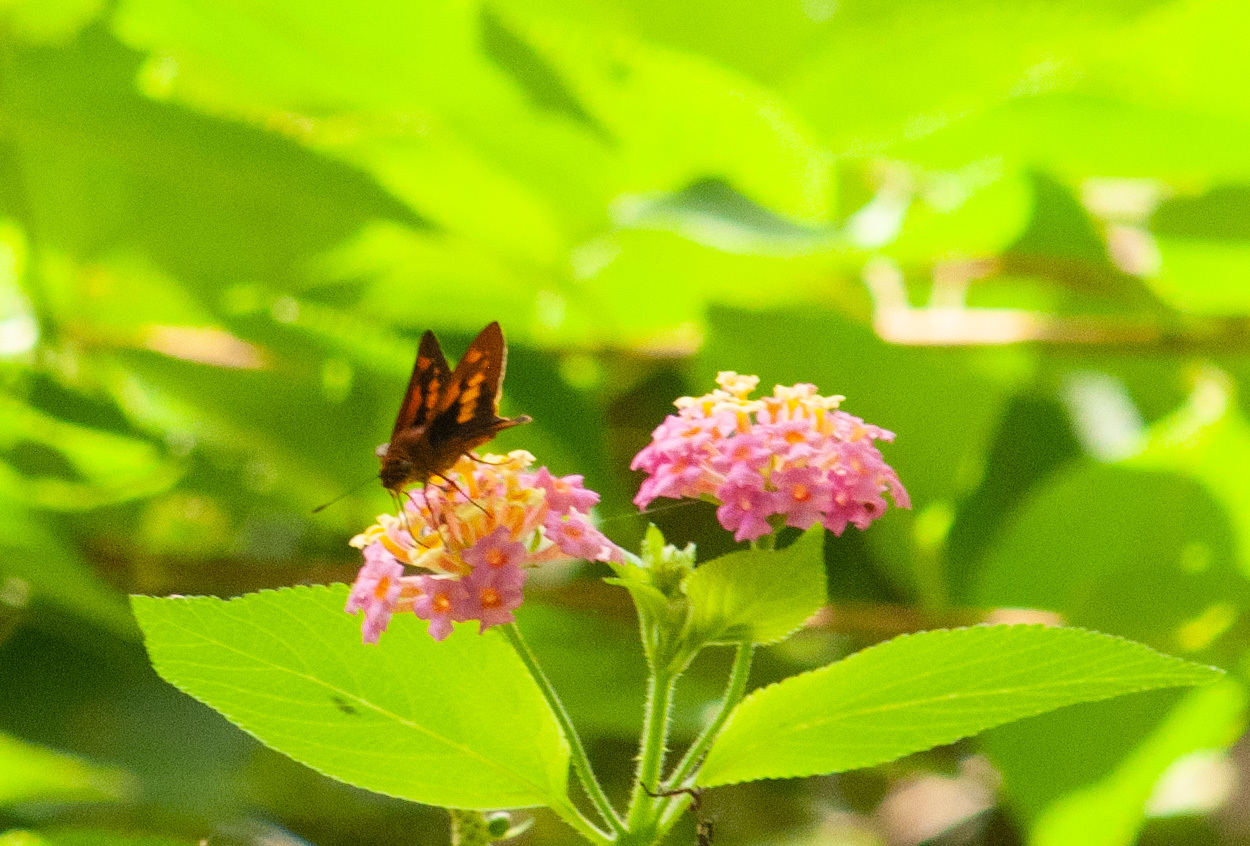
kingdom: Animalia
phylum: Arthropoda
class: Insecta
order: Lepidoptera
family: Hesperiidae
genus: Cephrenes
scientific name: Cephrenes augiades
